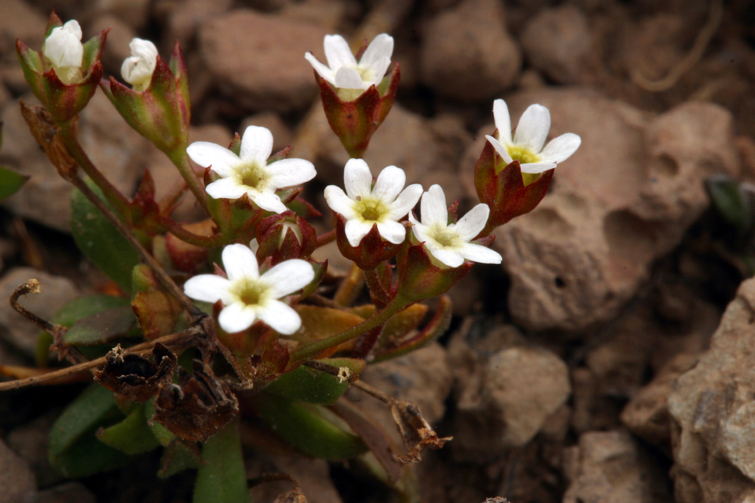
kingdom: Plantae
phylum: Tracheophyta
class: Magnoliopsida
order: Ericales
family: Primulaceae
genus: Androsace
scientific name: Androsace septentrionalis
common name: Hairy northern fairy-candelabra
